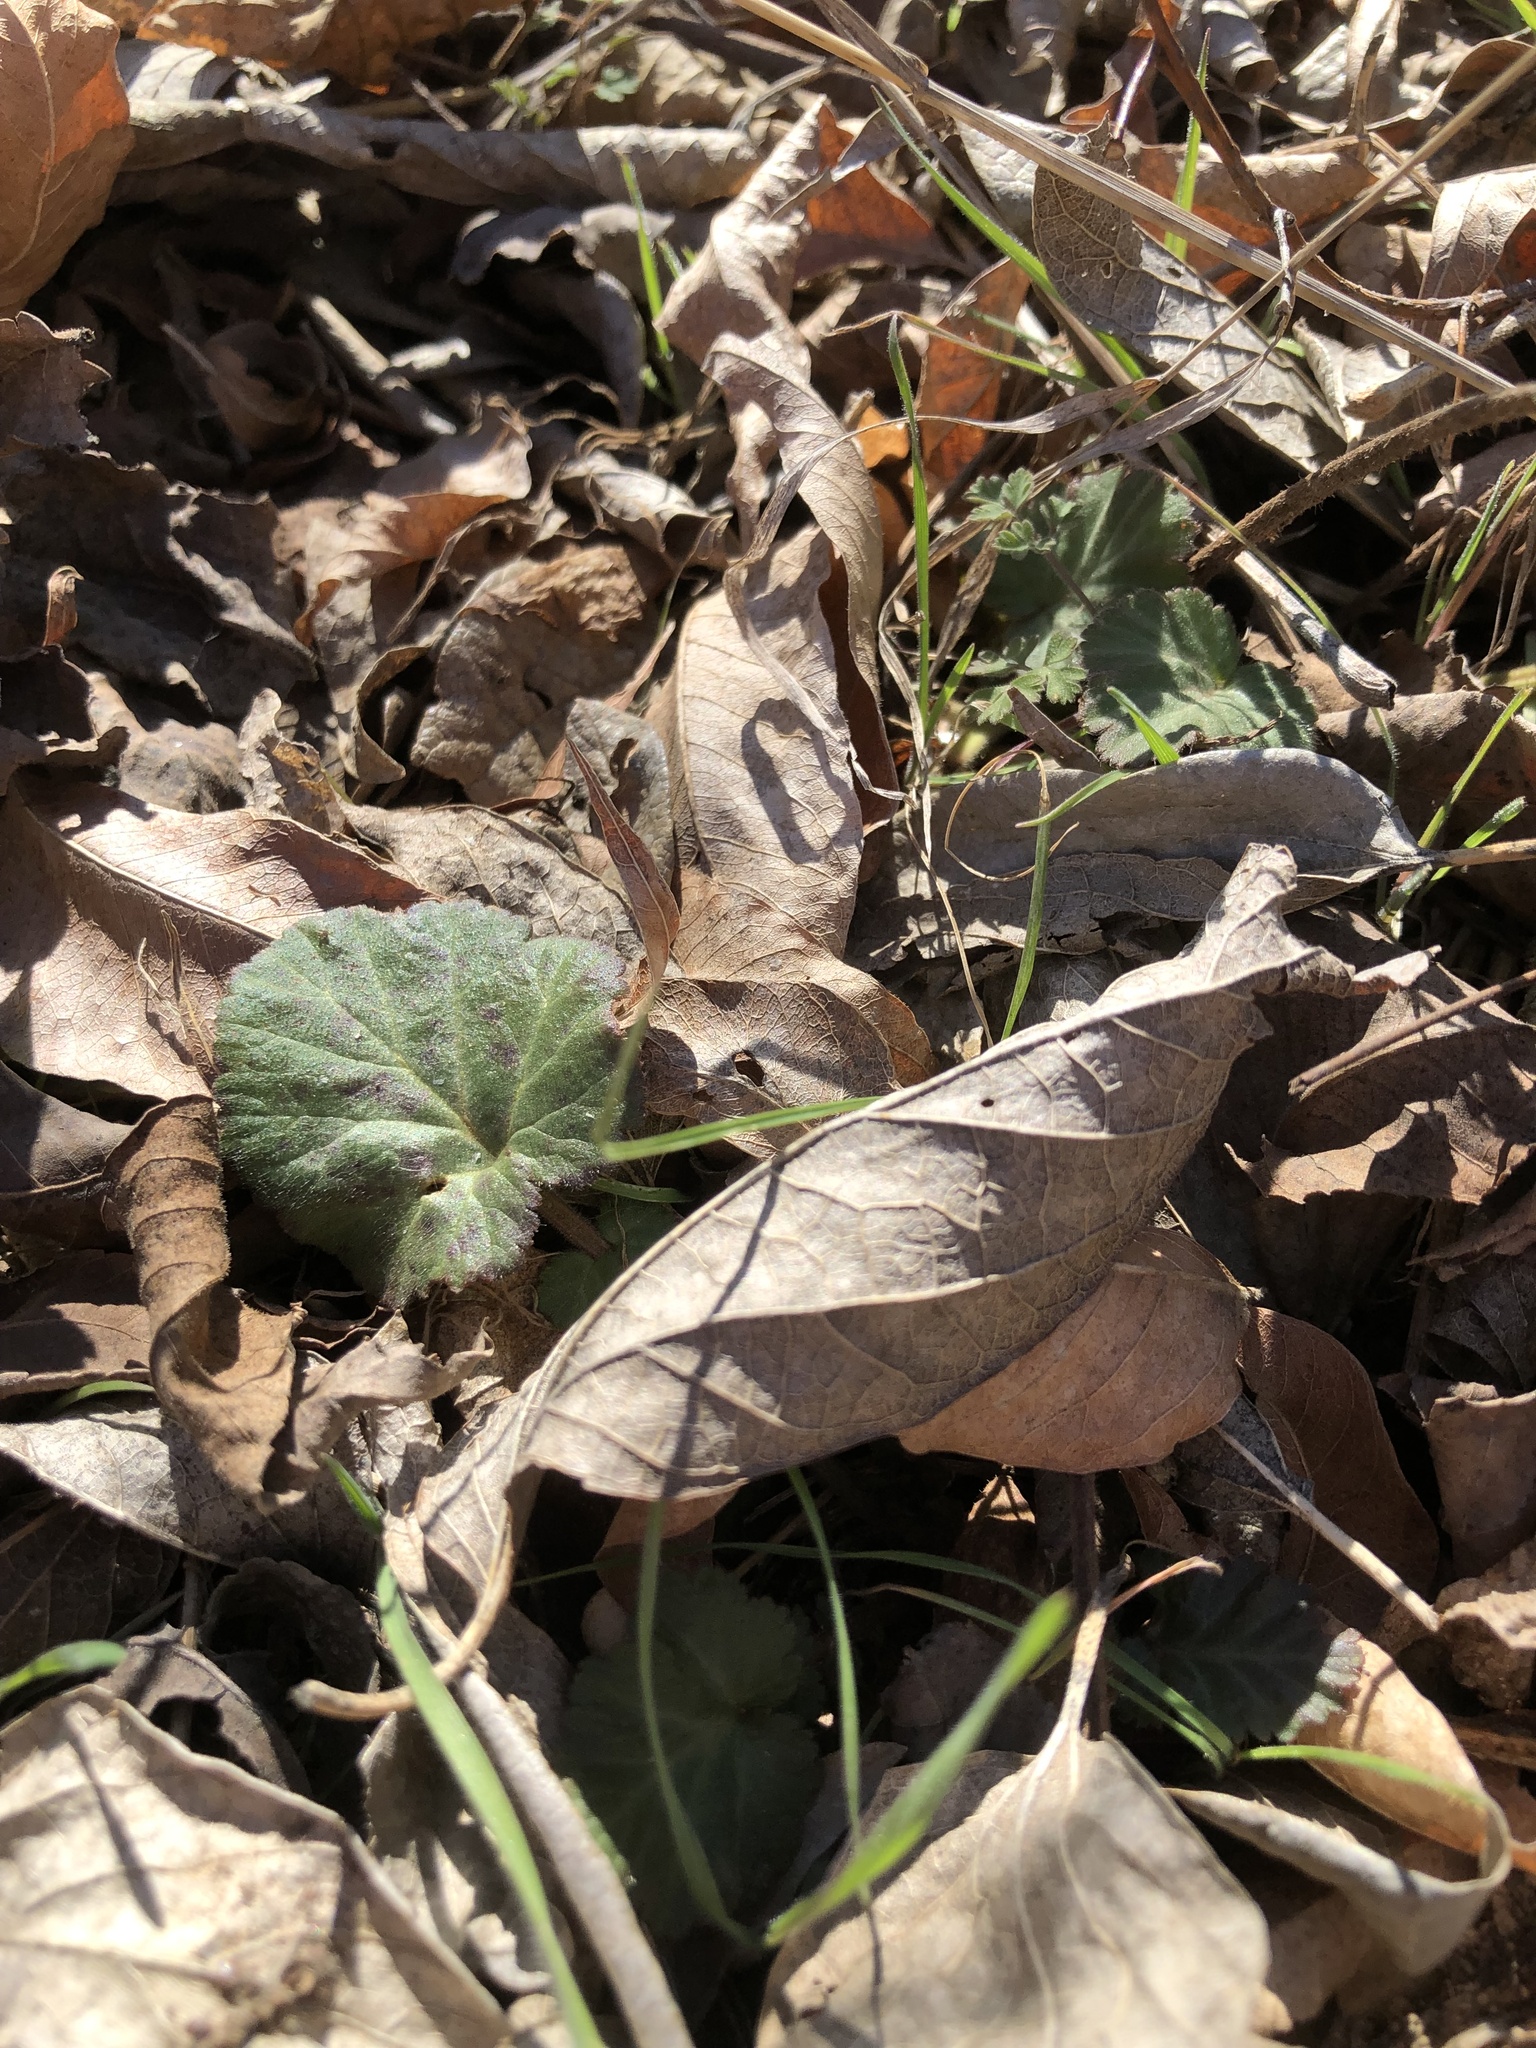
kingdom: Plantae
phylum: Tracheophyta
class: Magnoliopsida
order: Rosales
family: Rosaceae
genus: Geum
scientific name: Geum canadense
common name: White avens
